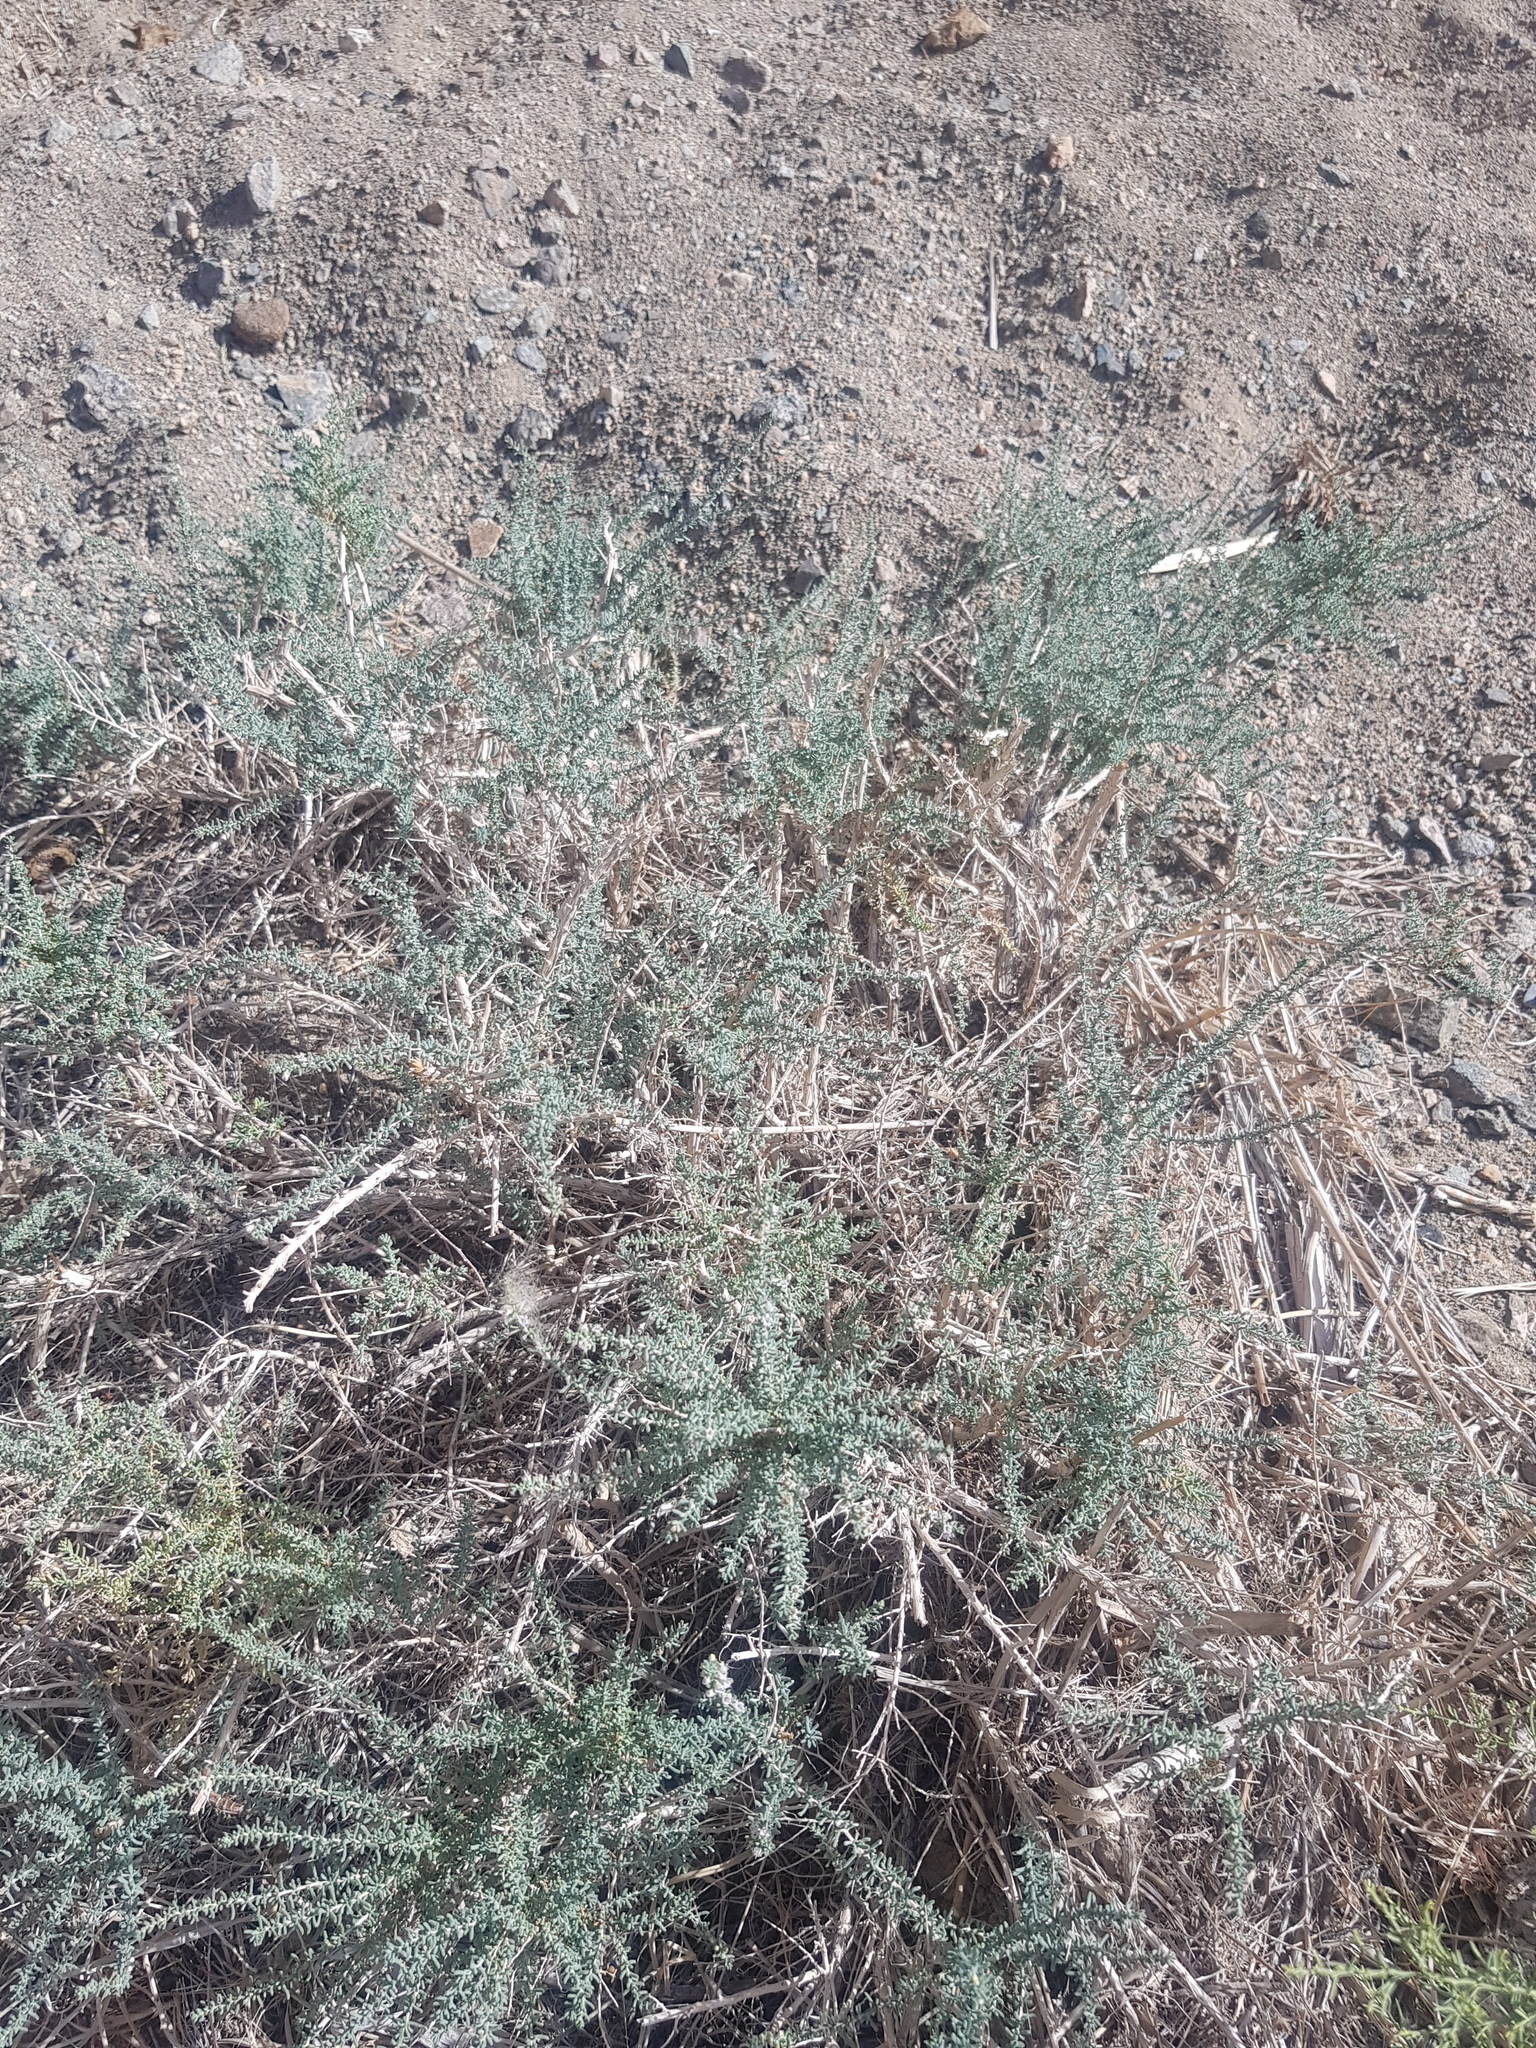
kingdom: Plantae
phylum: Tracheophyta
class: Magnoliopsida
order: Caryophyllales
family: Tamaricaceae
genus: Reaumuria
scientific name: Reaumuria songarica
